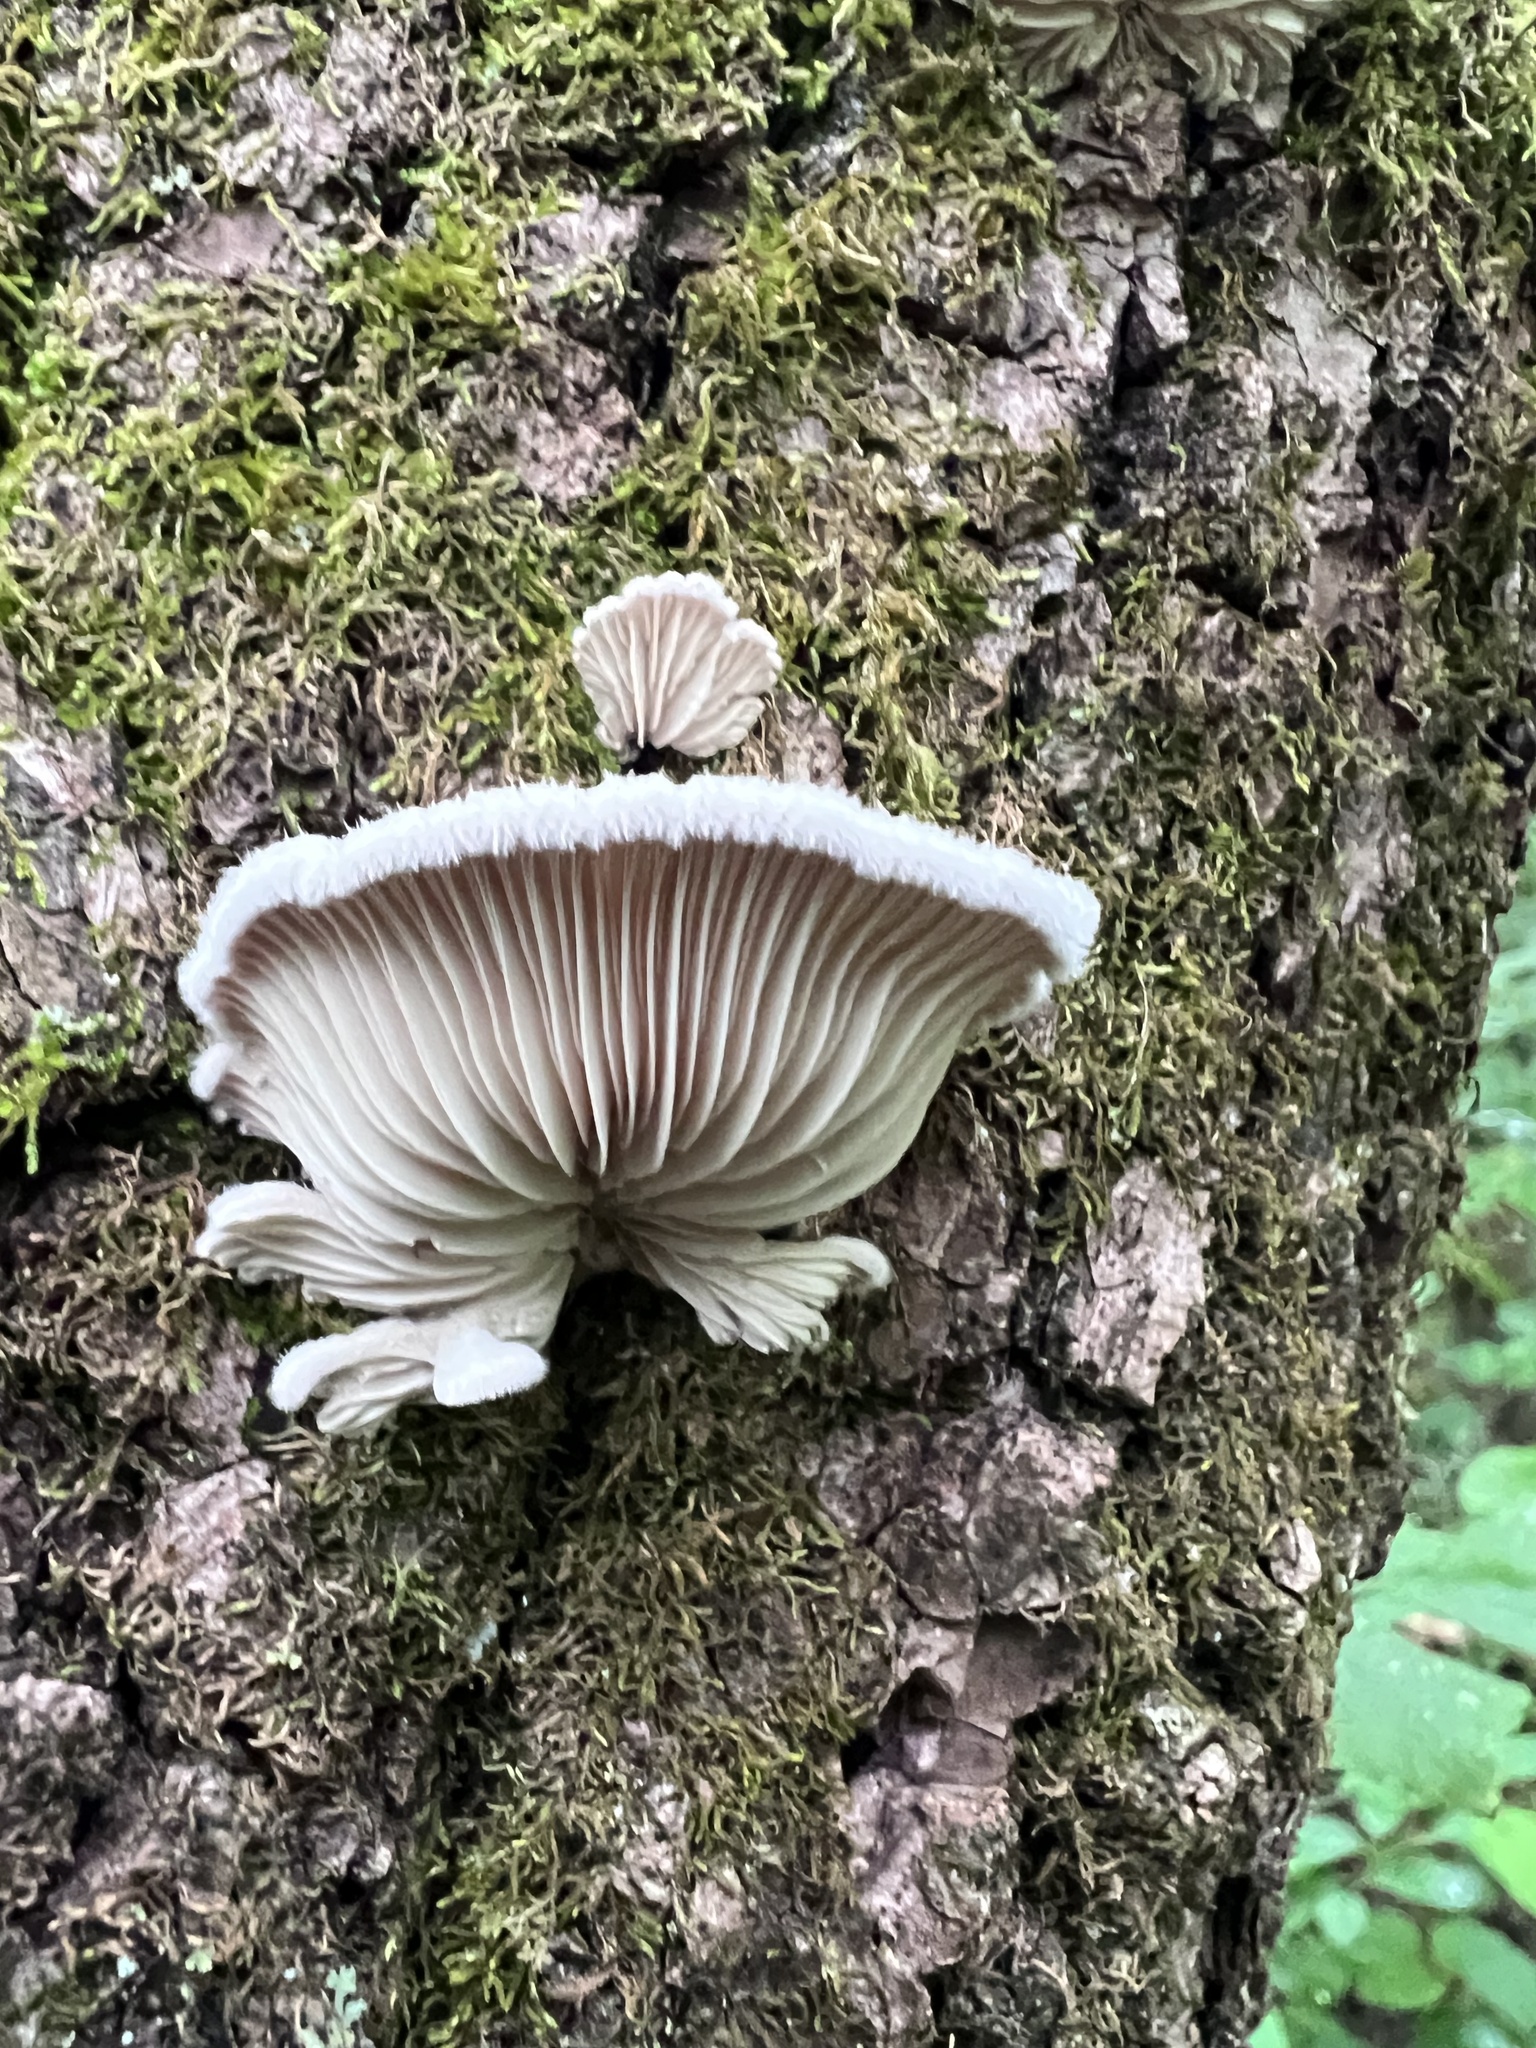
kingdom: Fungi
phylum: Basidiomycota
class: Agaricomycetes
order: Agaricales
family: Schizophyllaceae
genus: Schizophyllum
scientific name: Schizophyllum commune
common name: Common porecrust
